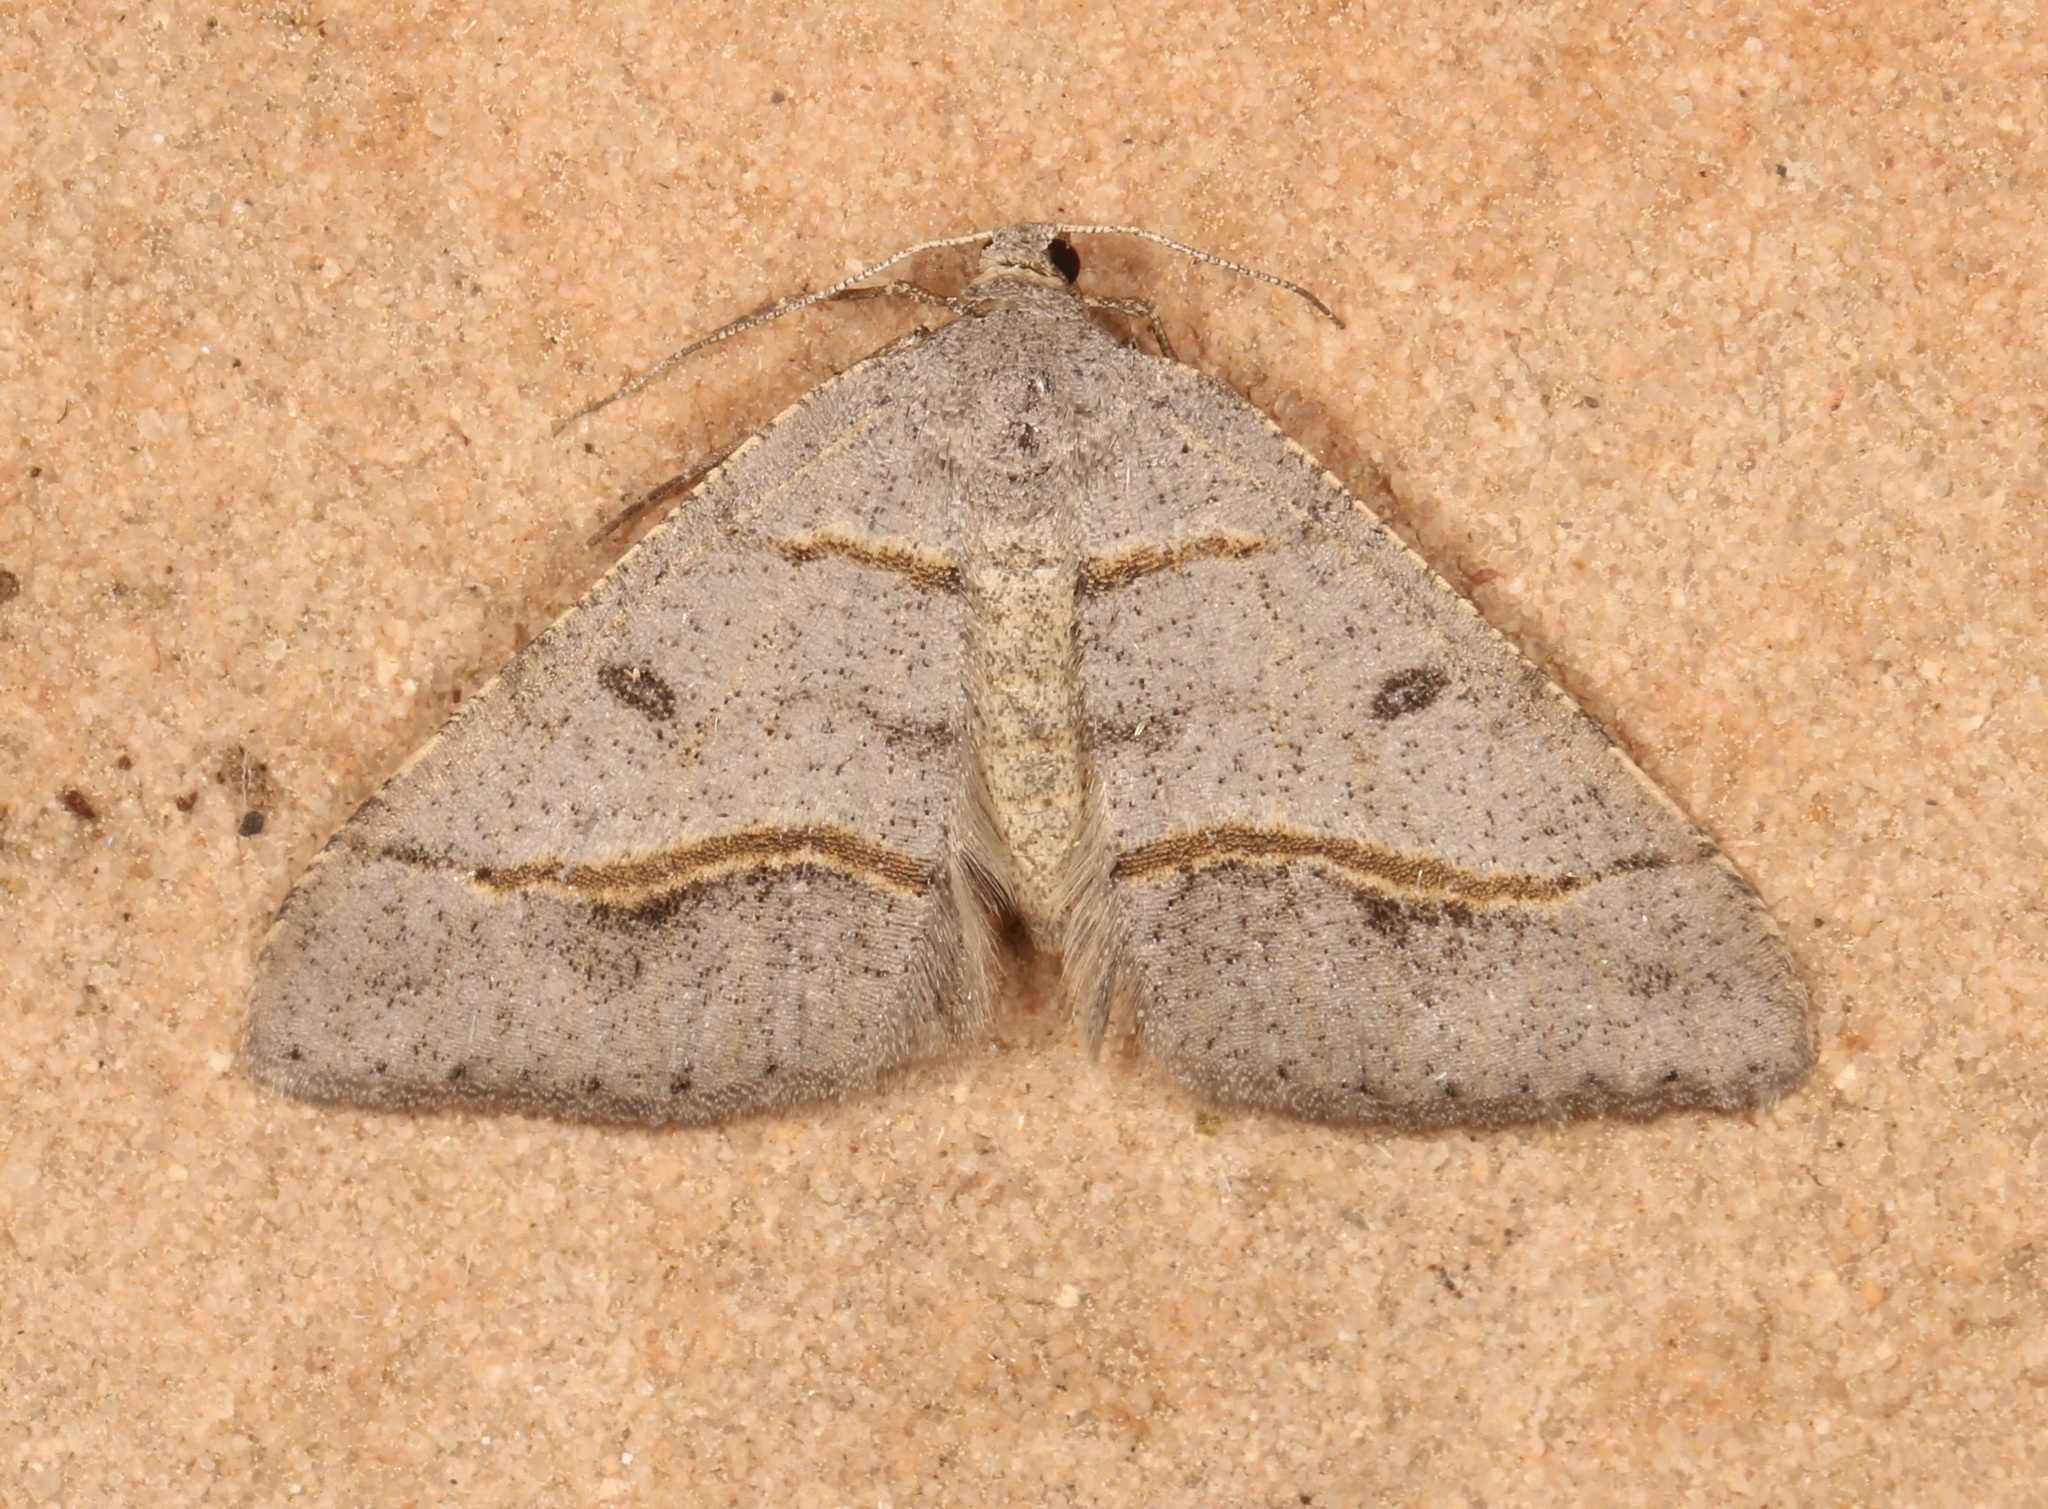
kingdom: Animalia
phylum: Arthropoda
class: Insecta
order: Lepidoptera
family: Geometridae
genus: Digrammia
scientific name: Digrammia neptaria
